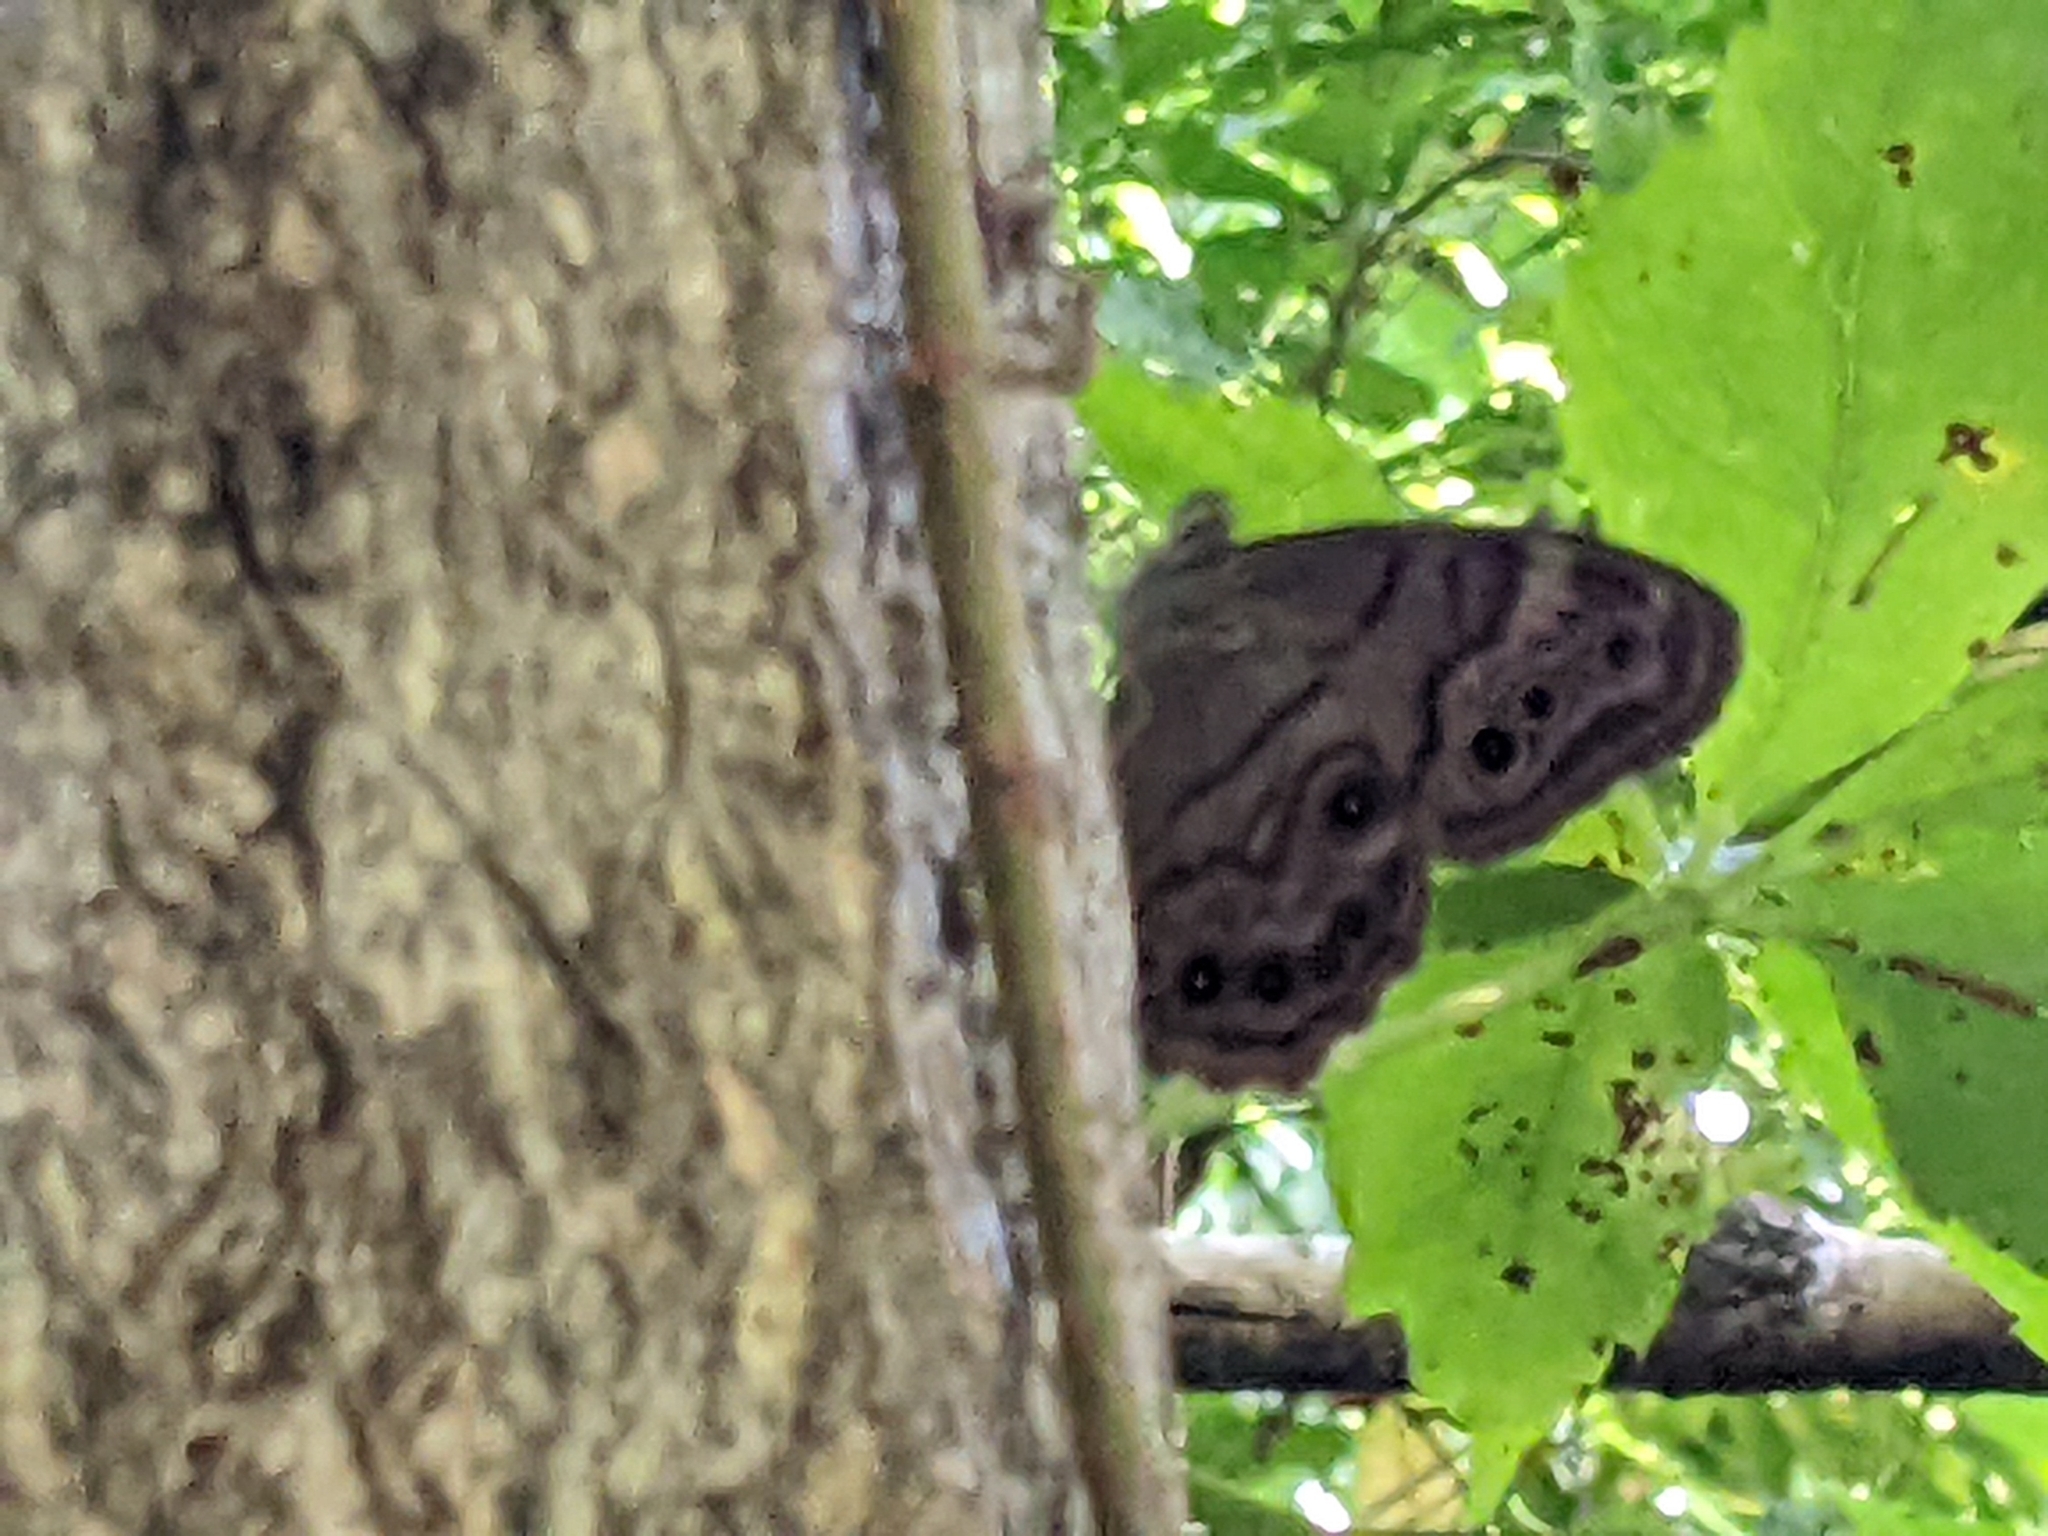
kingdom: Animalia
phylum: Arthropoda
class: Insecta
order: Lepidoptera
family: Nymphalidae
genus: Lethe
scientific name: Lethe anthedon
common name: Northern pearly-eye
